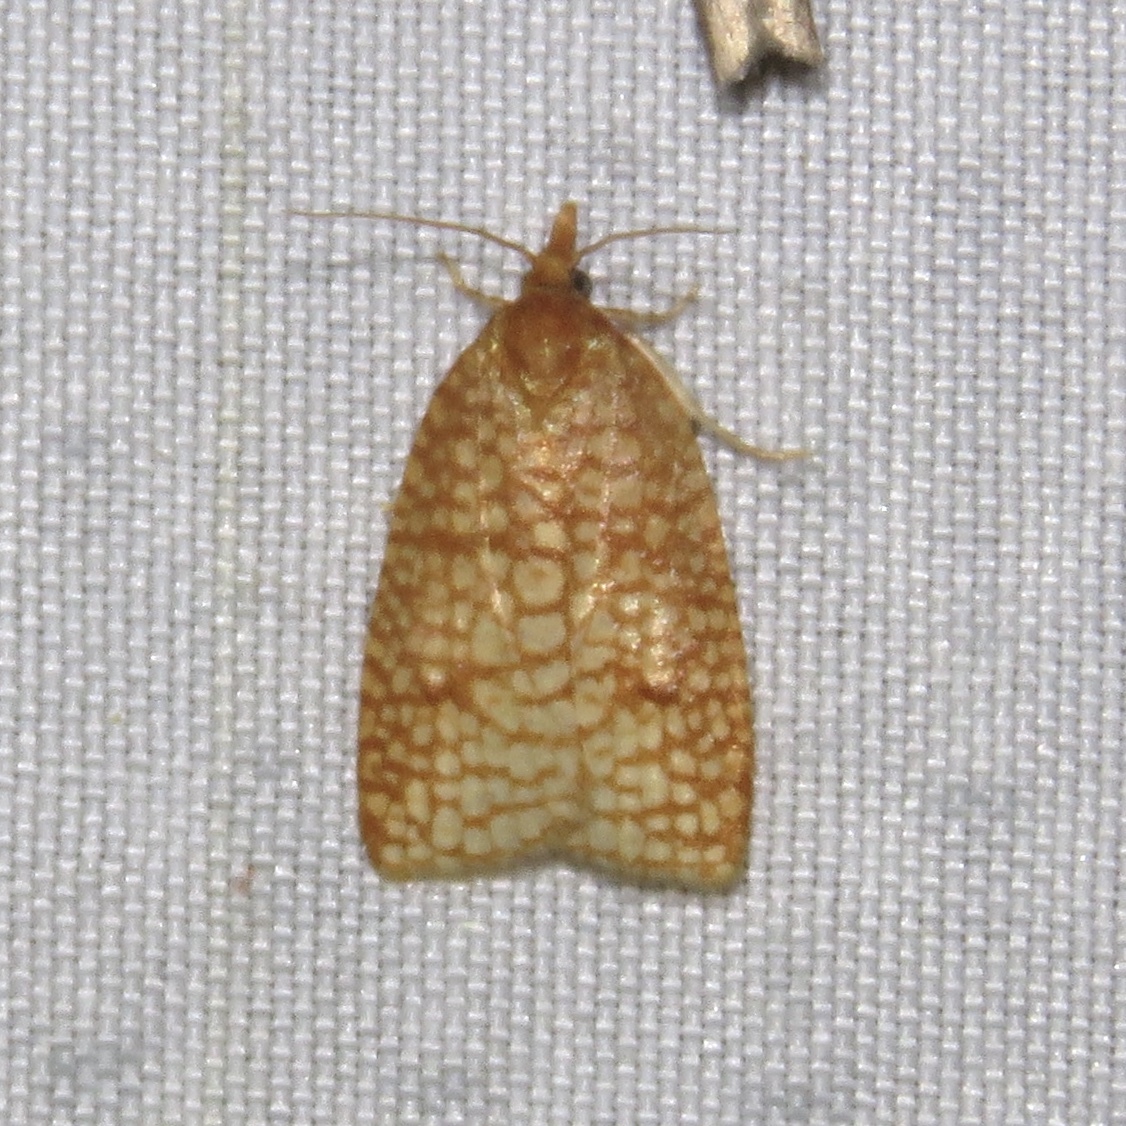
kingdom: Animalia
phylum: Arthropoda
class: Insecta
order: Lepidoptera
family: Tortricidae
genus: Sparganothis
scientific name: Sparganothis caryae
